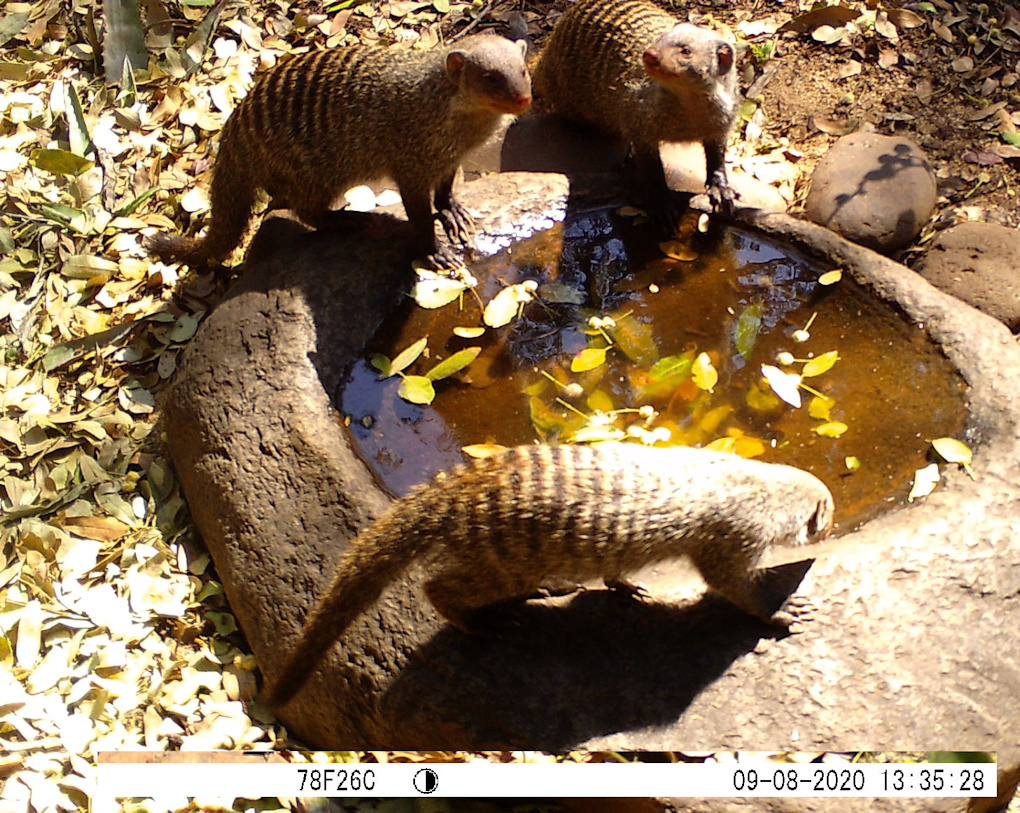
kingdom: Animalia
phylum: Chordata
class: Mammalia
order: Carnivora
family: Herpestidae
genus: Mungos
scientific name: Mungos mungo
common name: Banded mongoose
